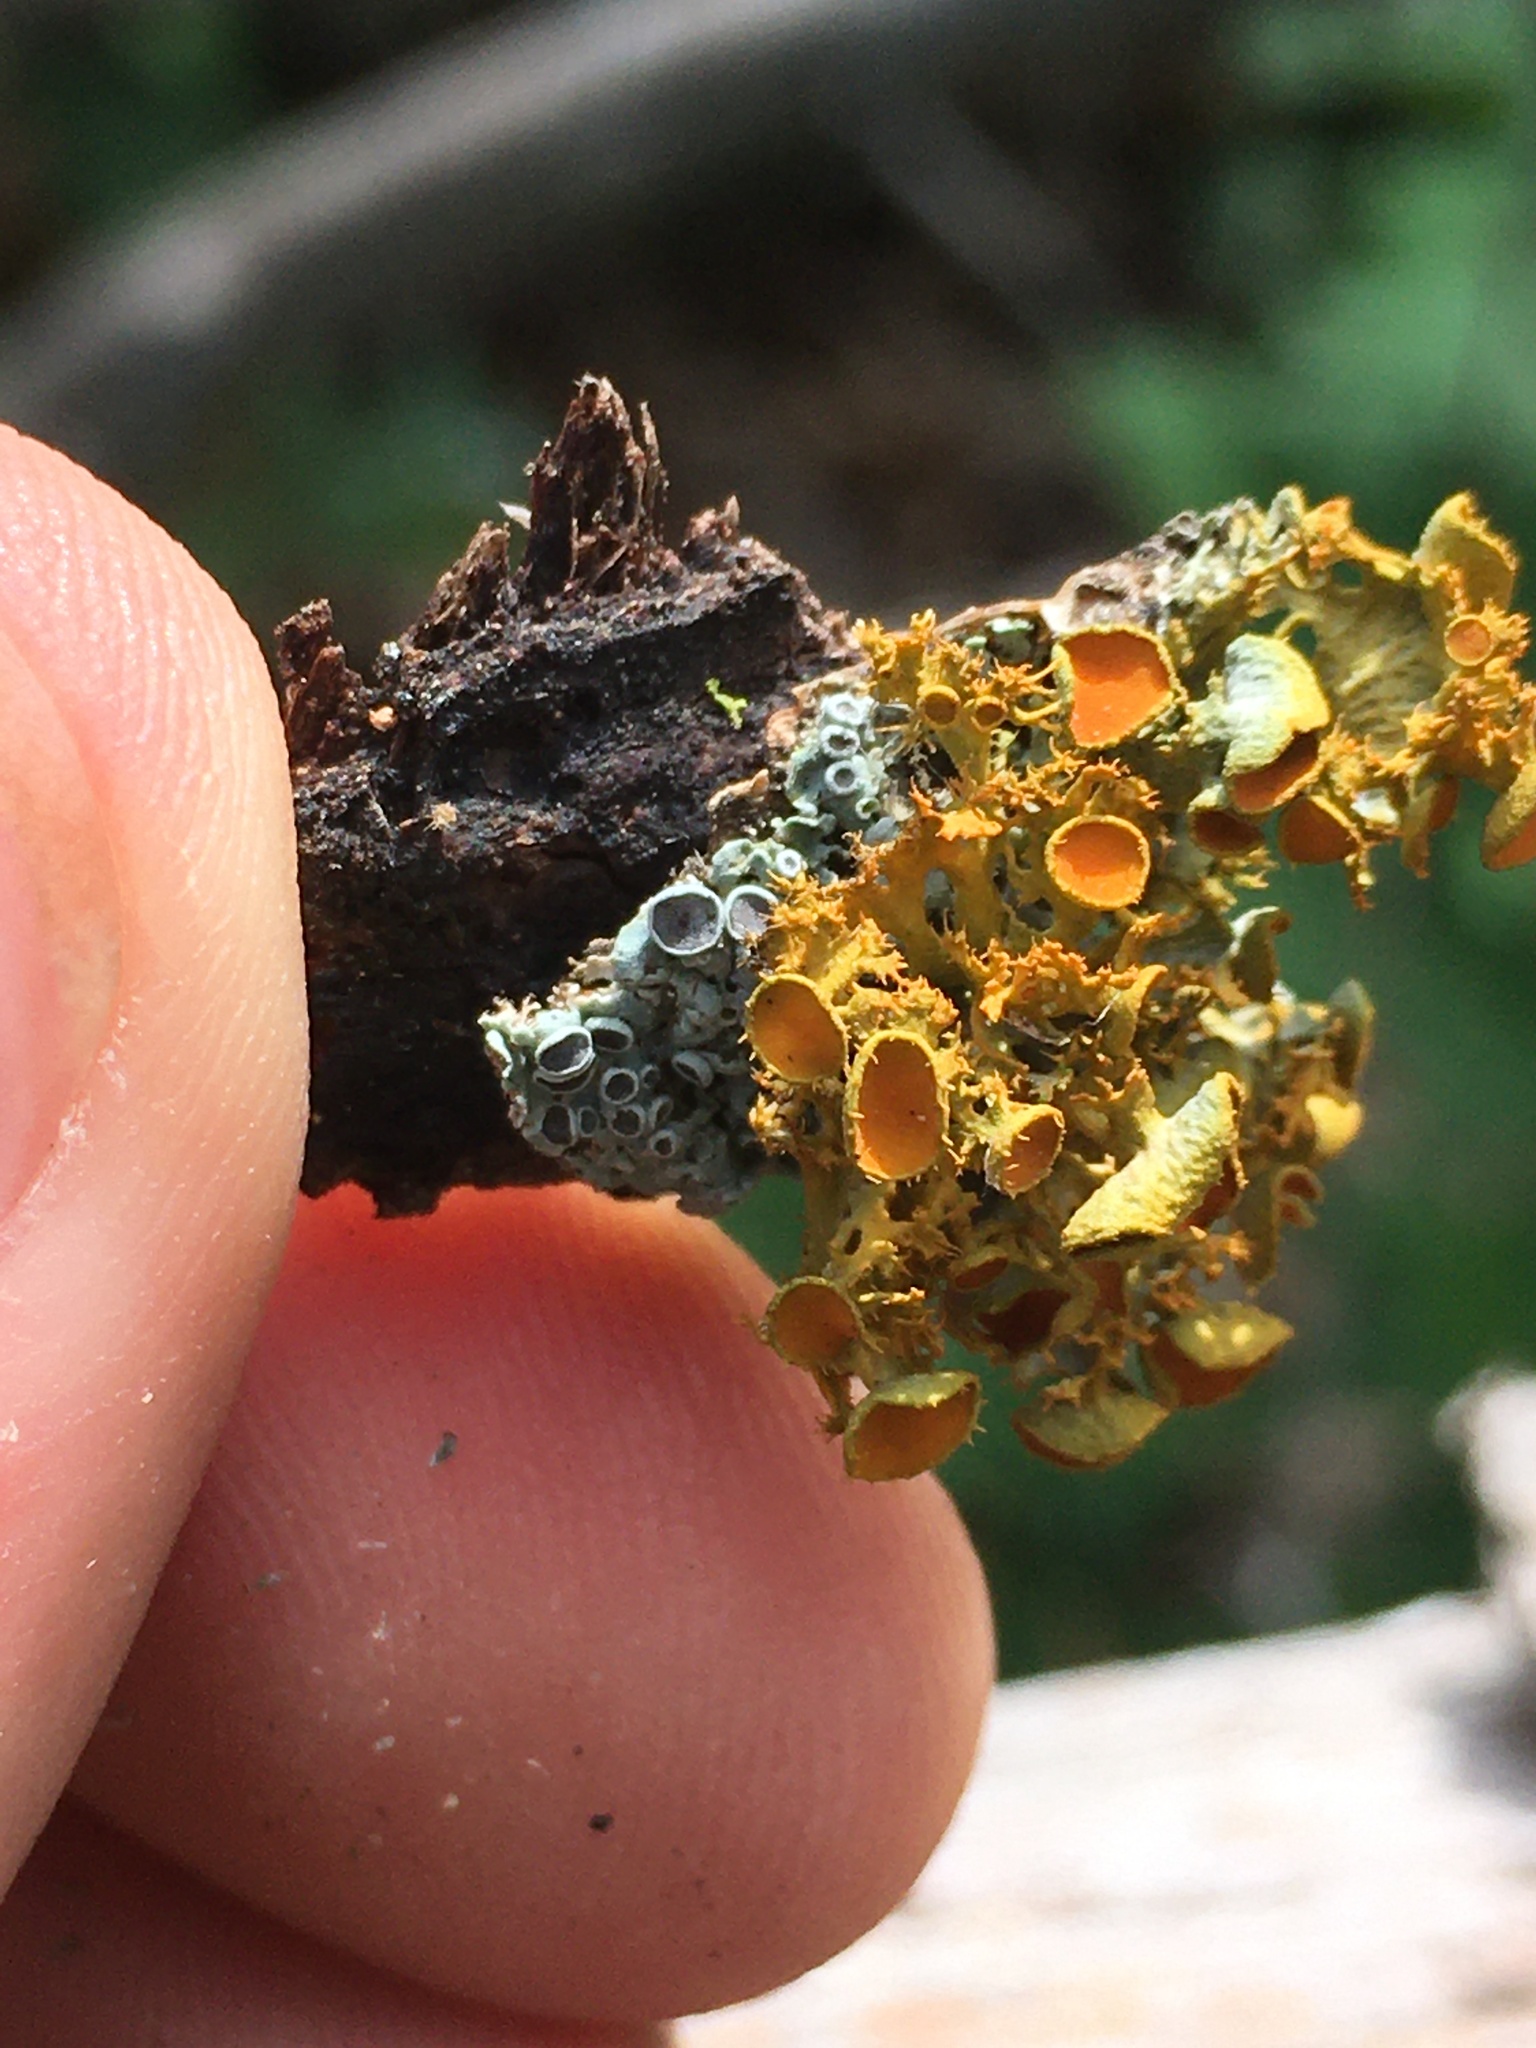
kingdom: Fungi
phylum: Ascomycota
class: Lecanoromycetes
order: Teloschistales
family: Teloschistaceae
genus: Niorma
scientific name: Niorma chrysophthalma
